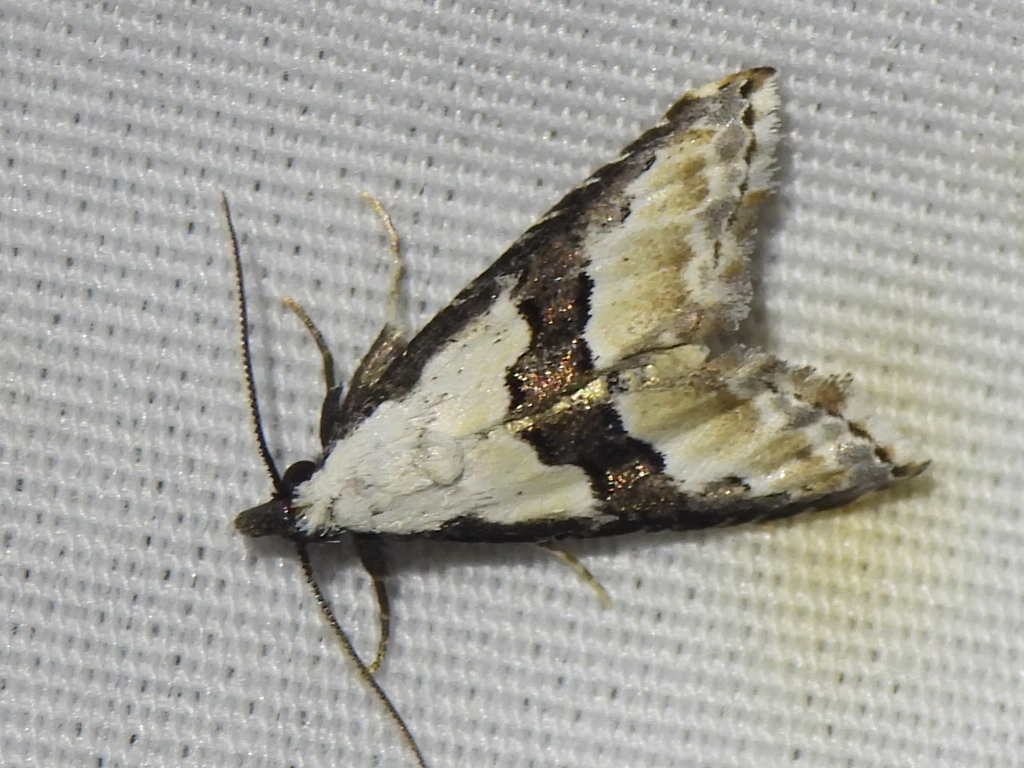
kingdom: Animalia
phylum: Arthropoda
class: Insecta
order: Lepidoptera
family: Noctuidae
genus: Nigetia
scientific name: Nigetia formosalis
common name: Thin-winged owlet
